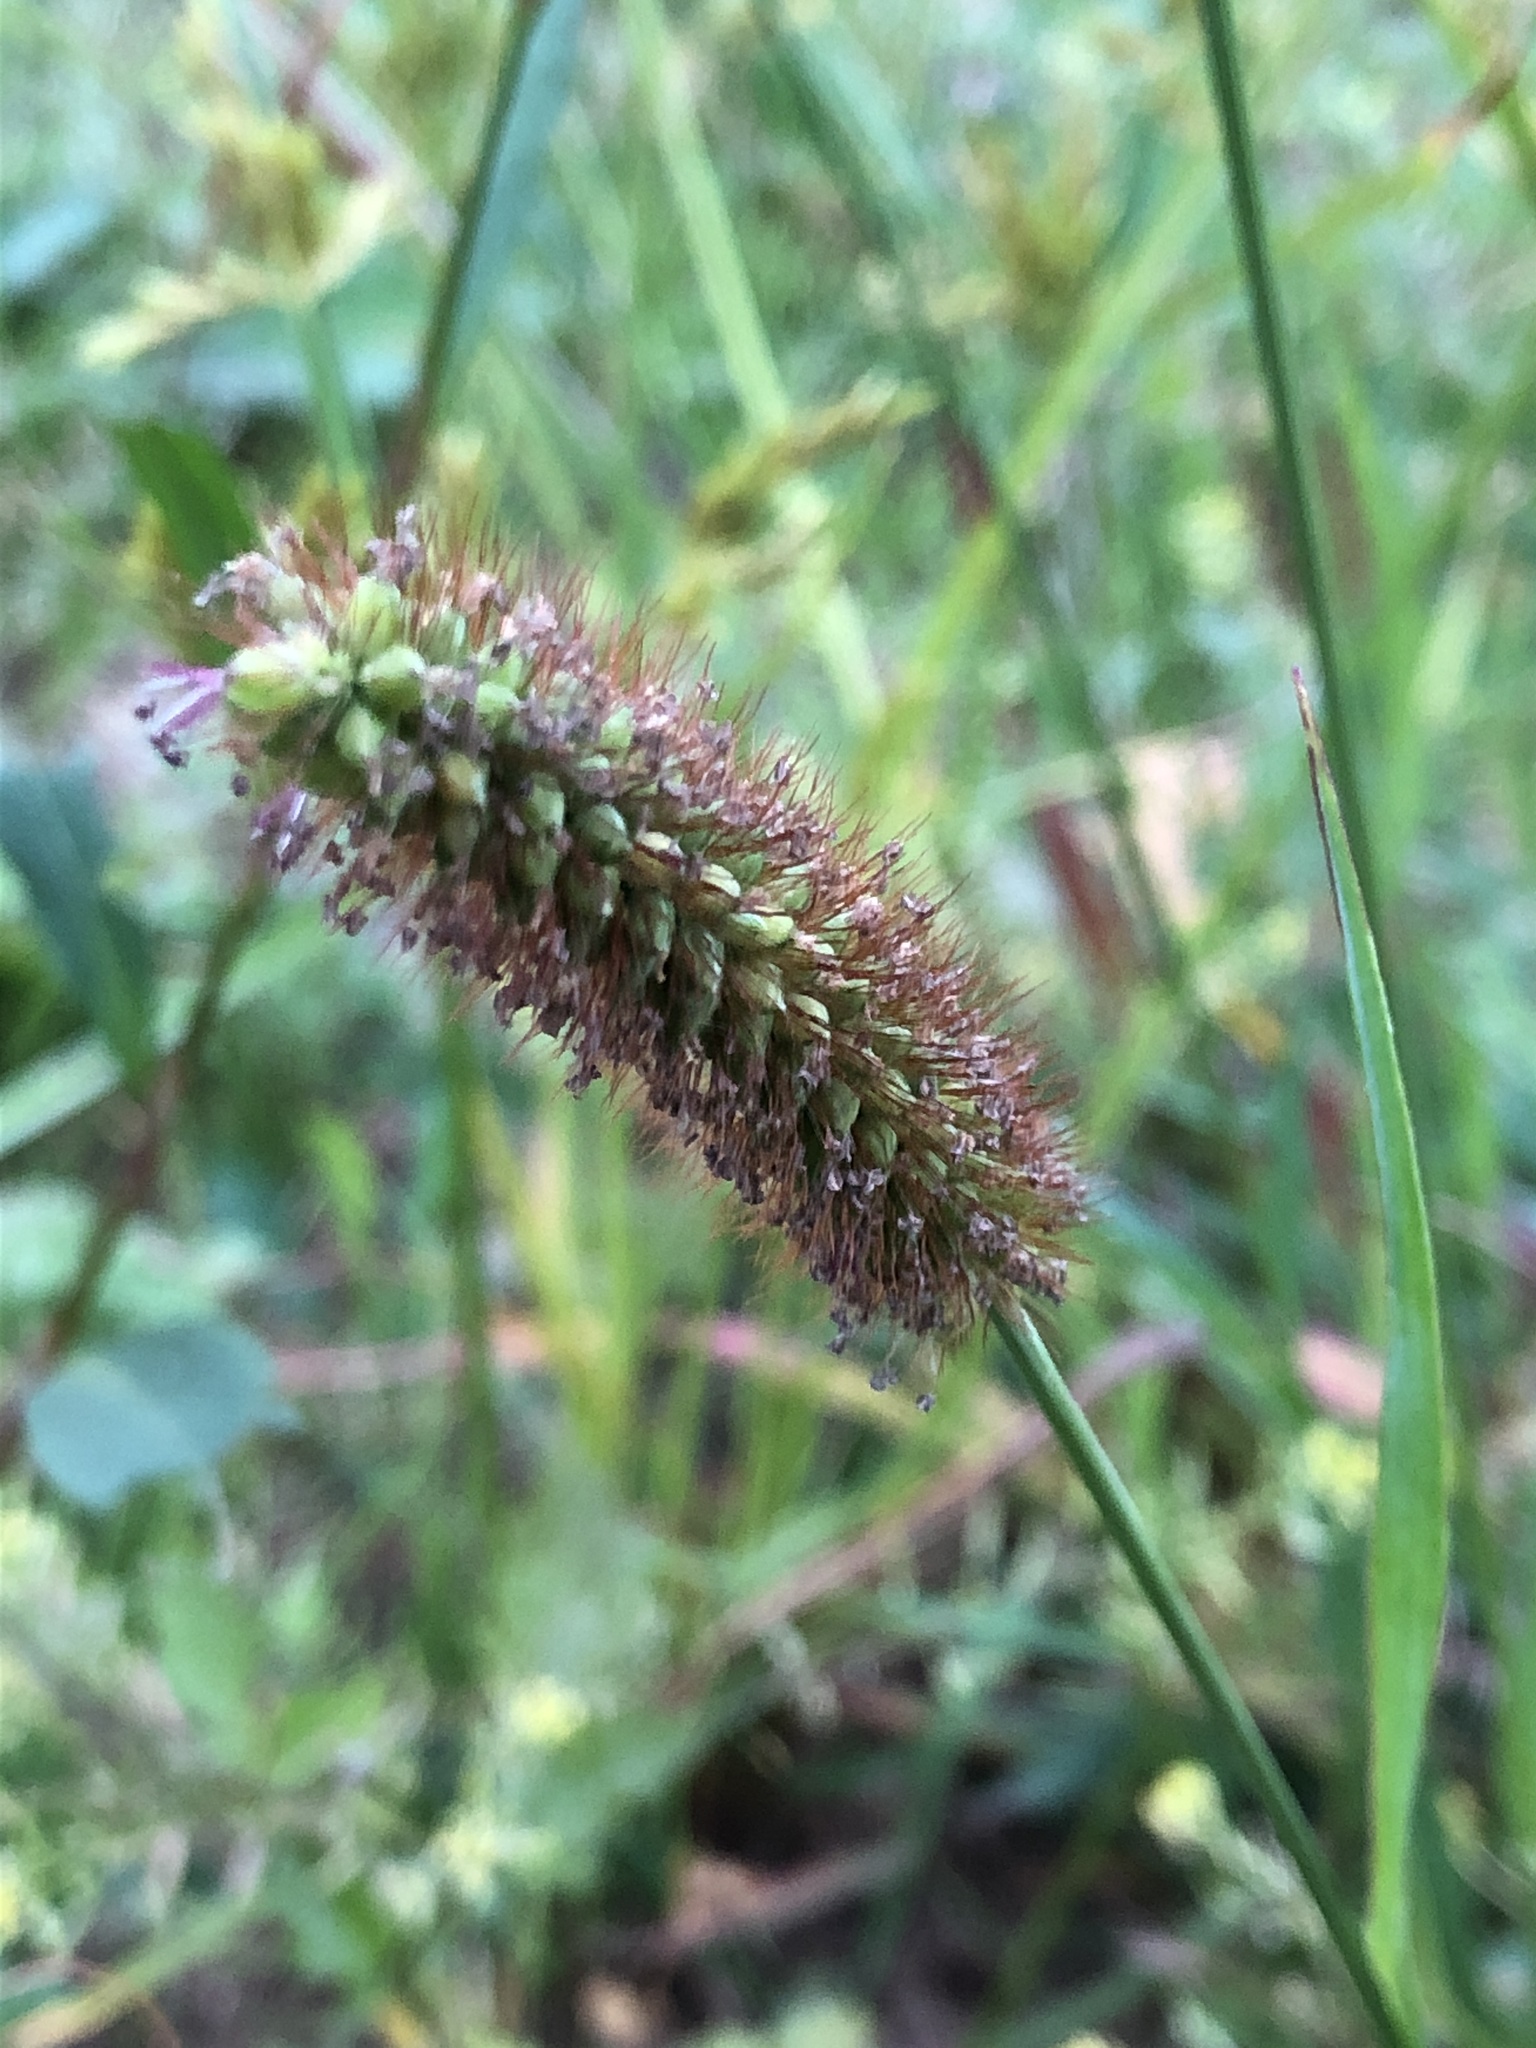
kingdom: Plantae
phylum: Tracheophyta
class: Liliopsida
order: Poales
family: Poaceae
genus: Setaria
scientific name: Setaria pumila
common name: Yellow bristle-grass
